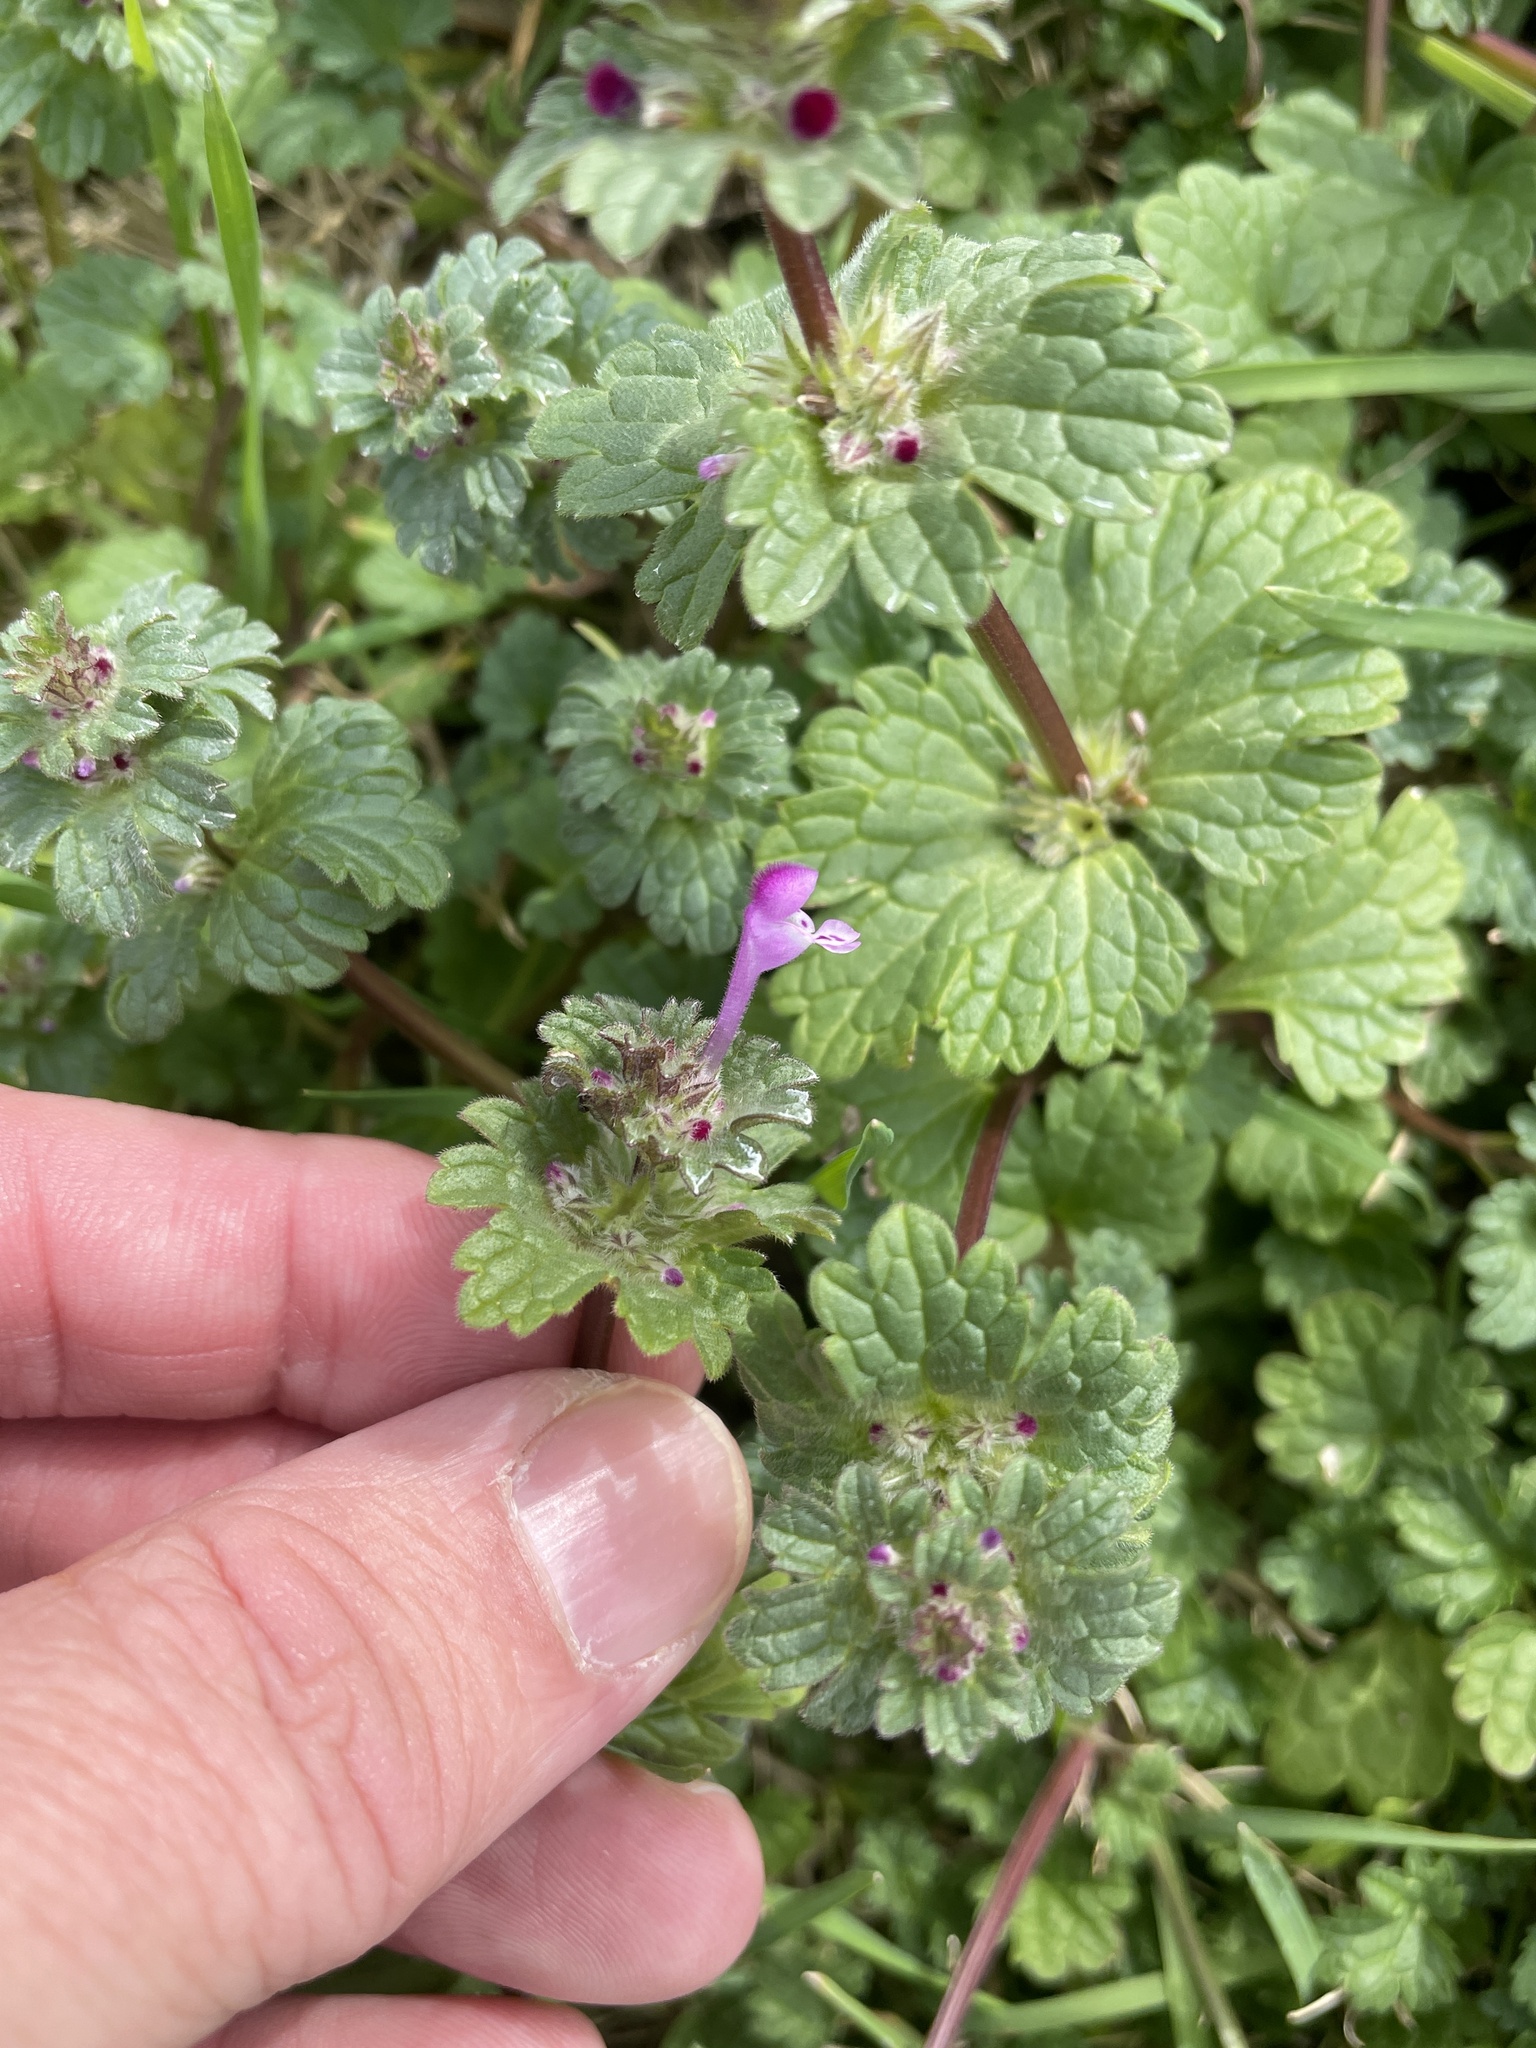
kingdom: Plantae
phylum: Tracheophyta
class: Magnoliopsida
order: Lamiales
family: Lamiaceae
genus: Lamium
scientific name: Lamium amplexicaule
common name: Henbit dead-nettle
